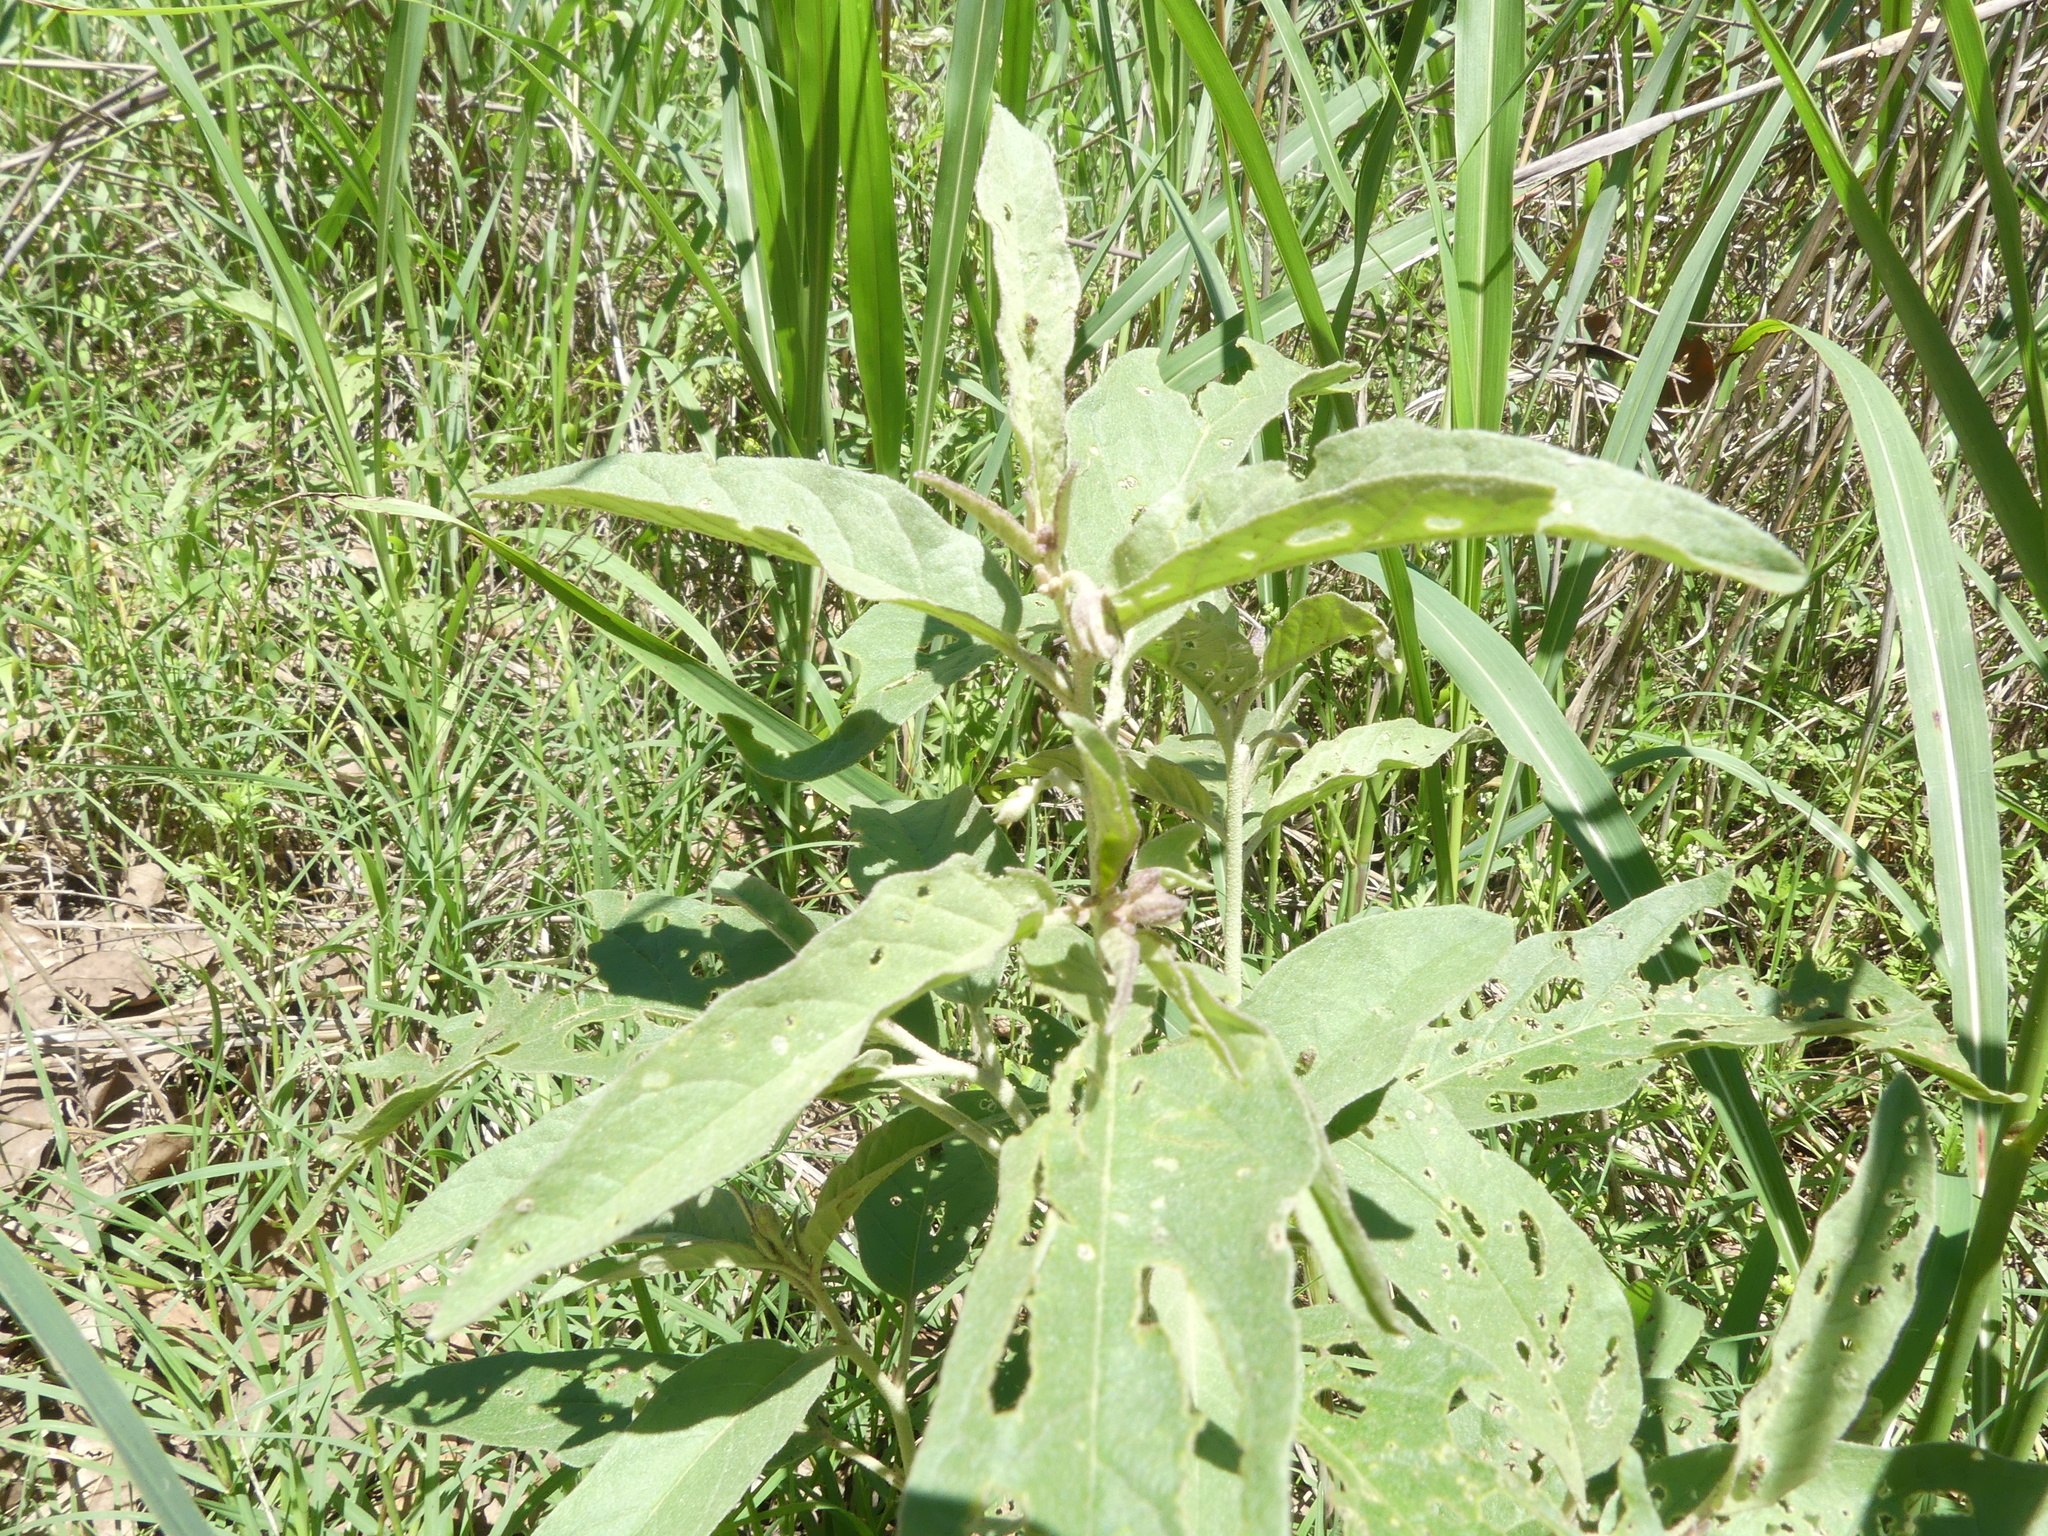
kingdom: Plantae
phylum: Tracheophyta
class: Magnoliopsida
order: Solanales
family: Solanaceae
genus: Solanum
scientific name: Solanum elaeagnifolium
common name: Silverleaf nightshade
